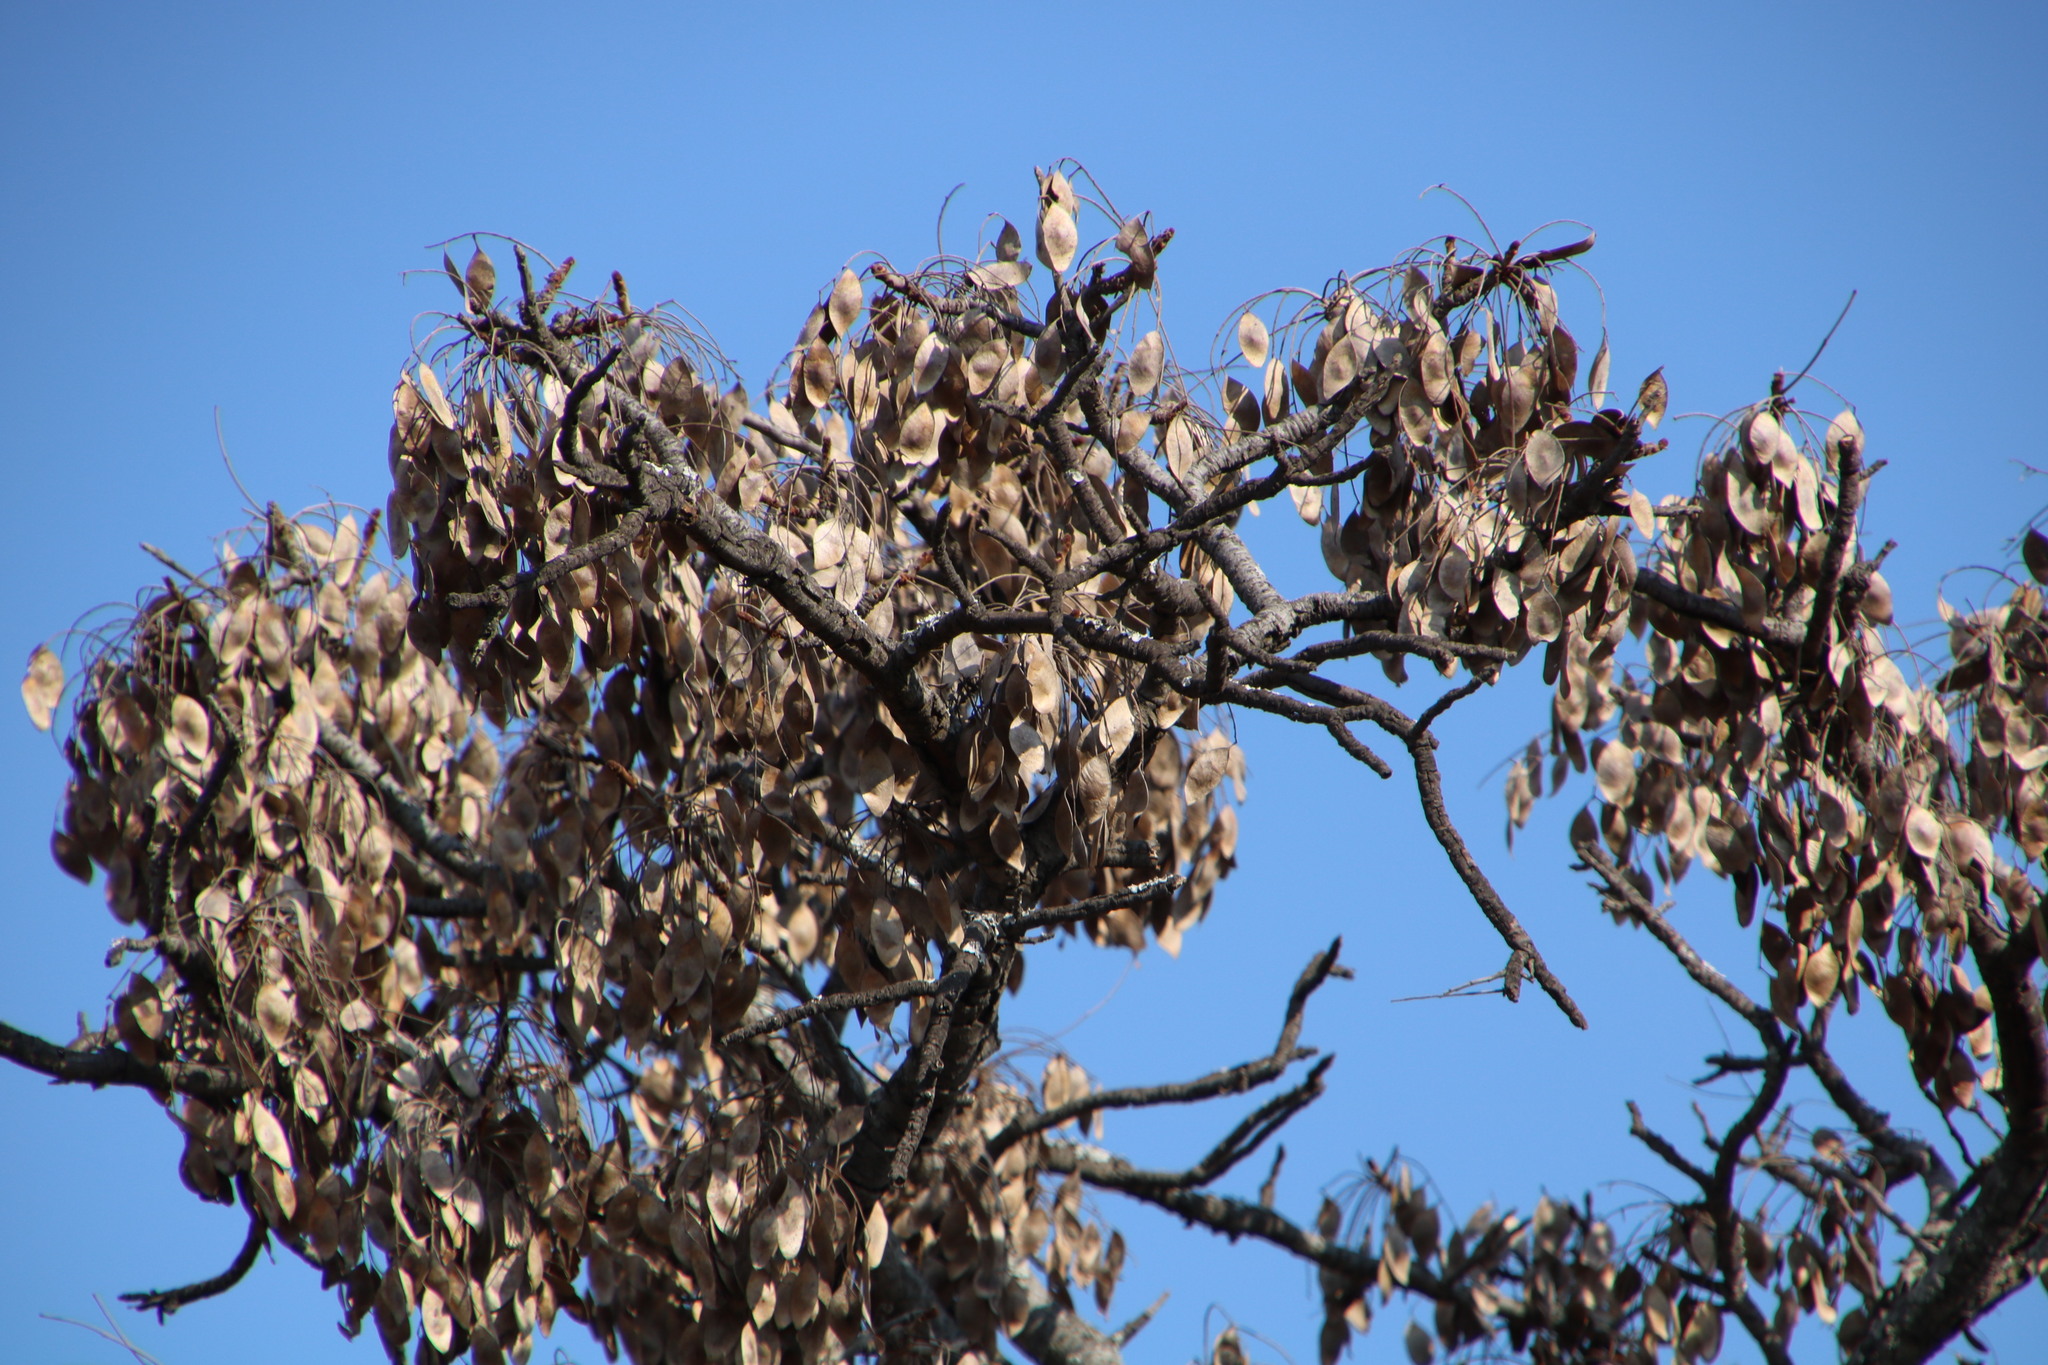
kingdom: Plantae
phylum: Tracheophyta
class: Magnoliopsida
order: Myrtales
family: Combretaceae
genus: Terminalia
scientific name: Terminalia sericea
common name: Clusterleaf
